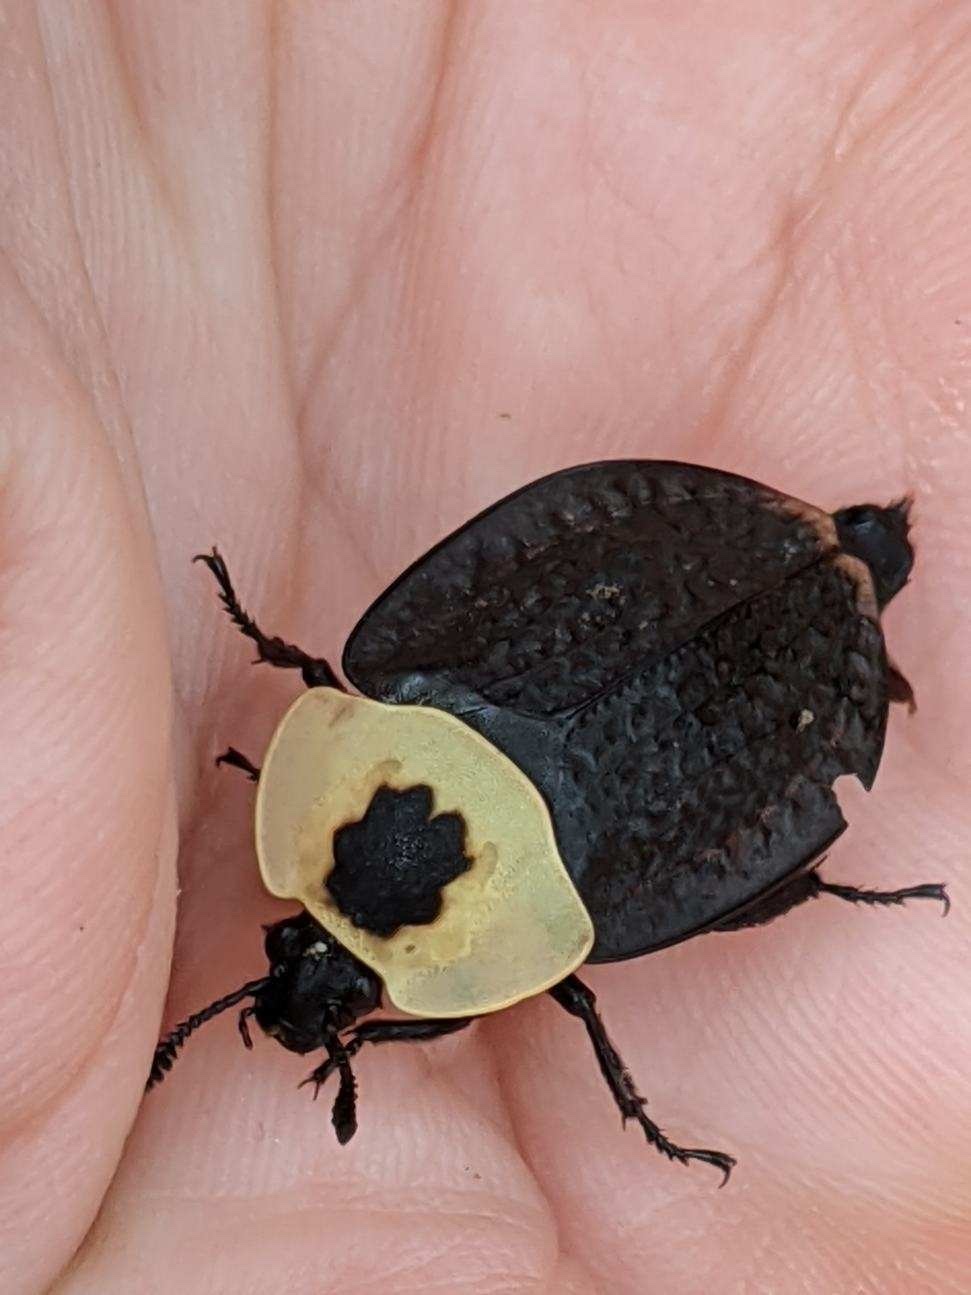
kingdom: Animalia
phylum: Arthropoda
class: Insecta
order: Coleoptera
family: Staphylinidae
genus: Necrophila
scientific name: Necrophila americana
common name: American carrion beetle
